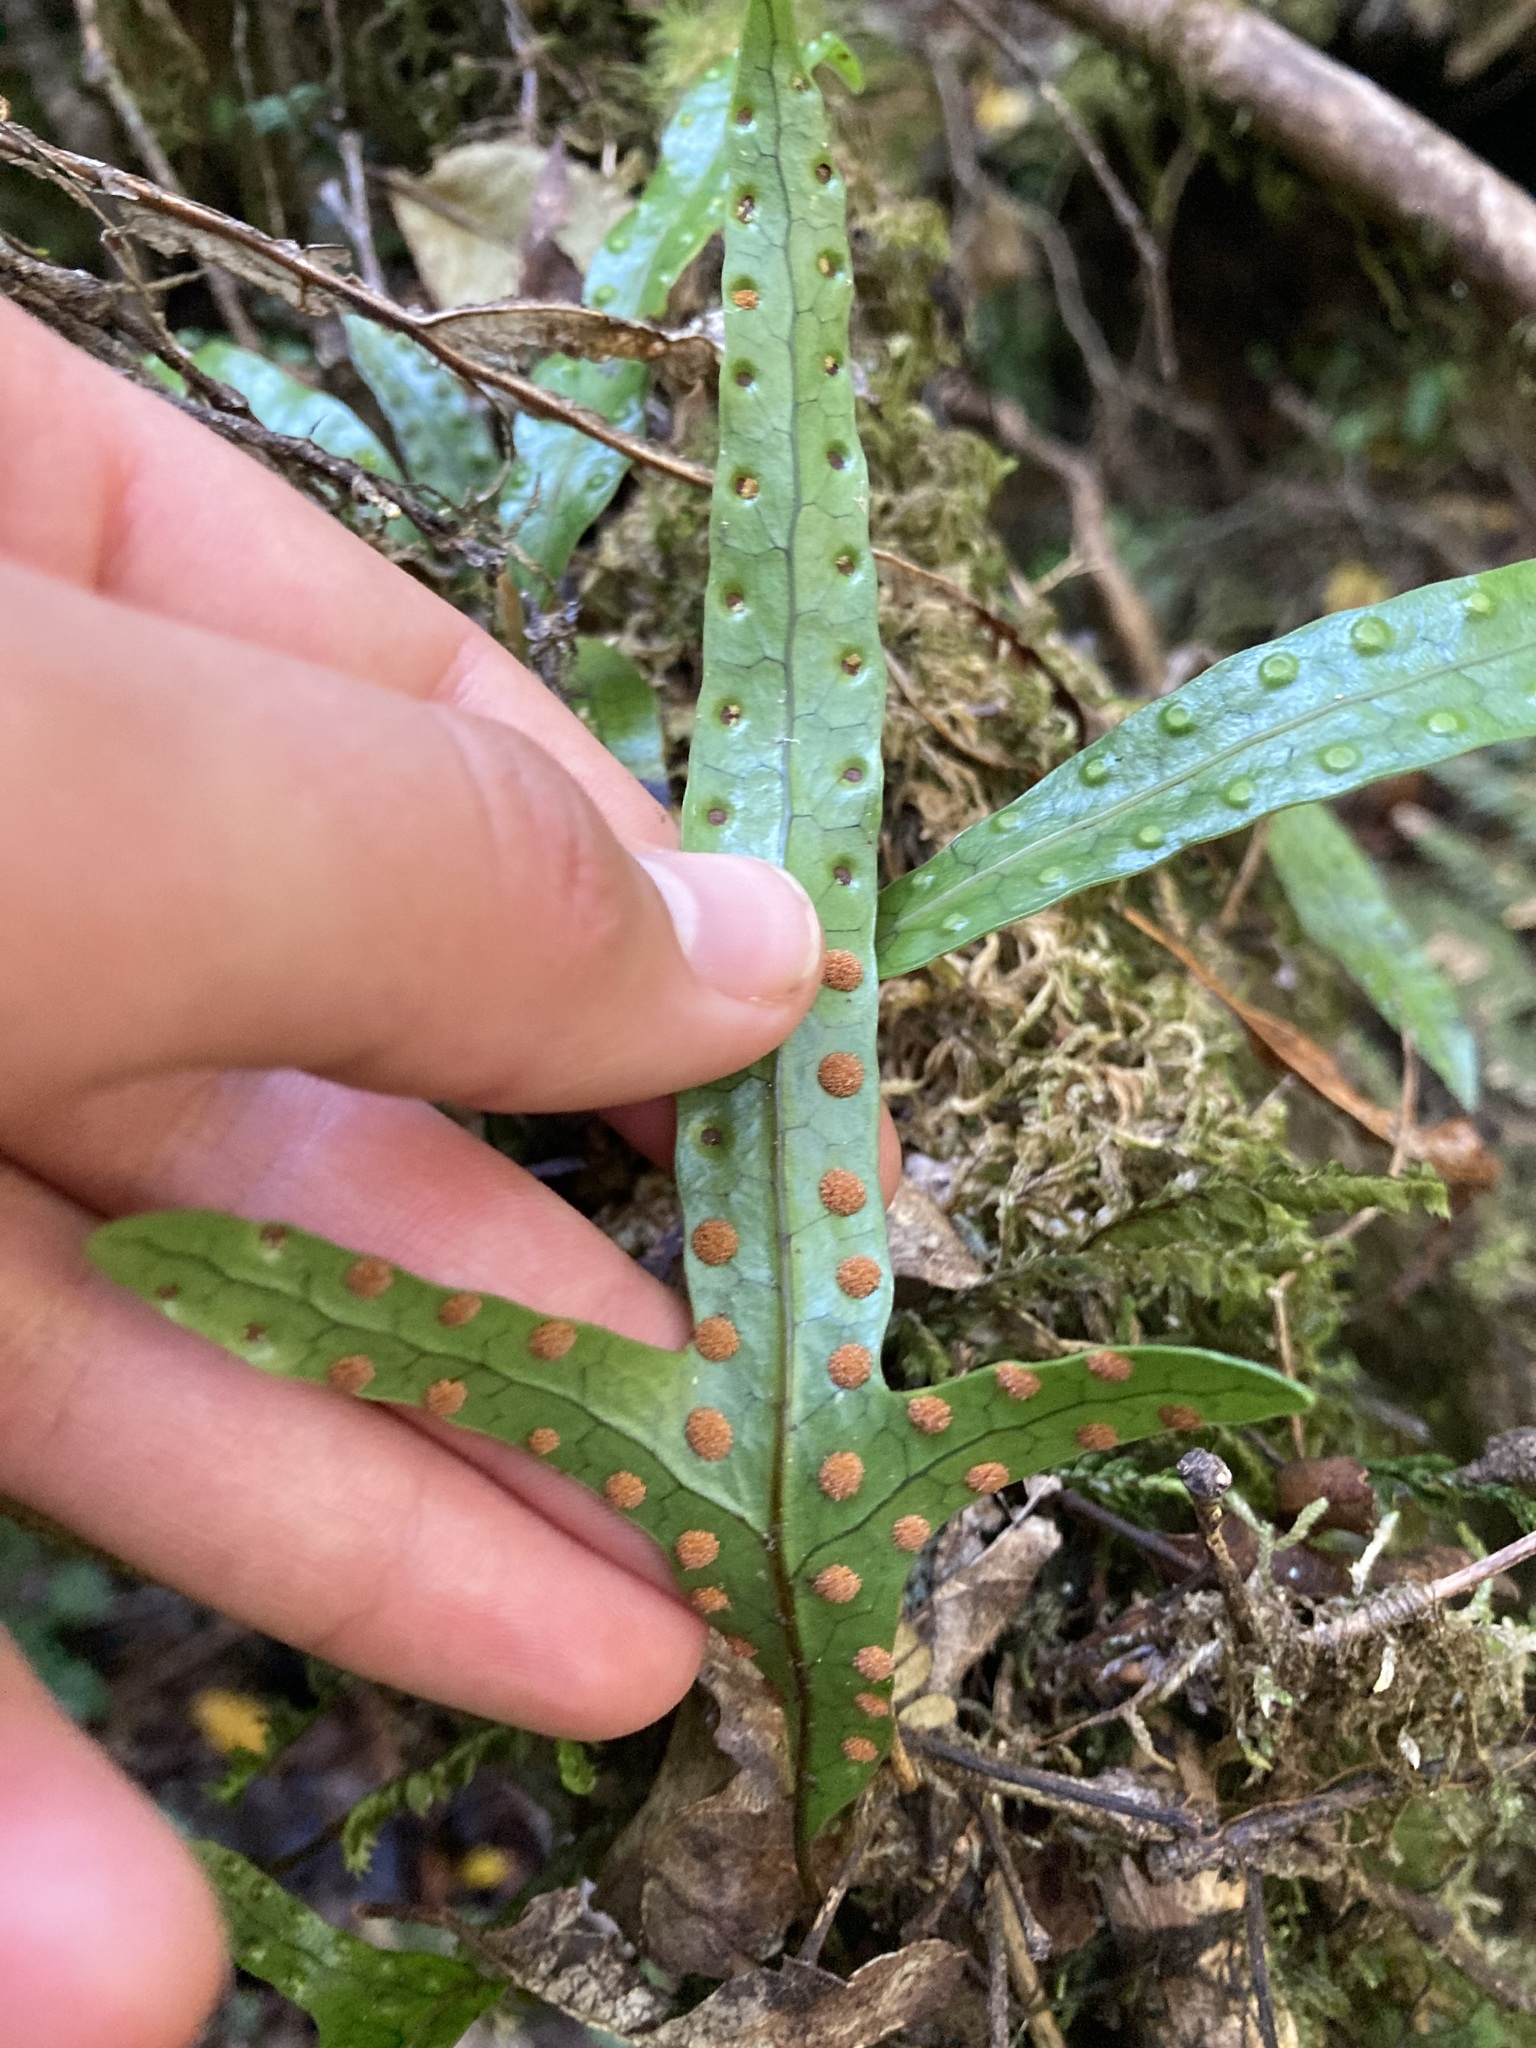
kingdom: Plantae
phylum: Tracheophyta
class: Polypodiopsida
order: Polypodiales
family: Polypodiaceae
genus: Lecanopteris
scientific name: Lecanopteris pustulata
